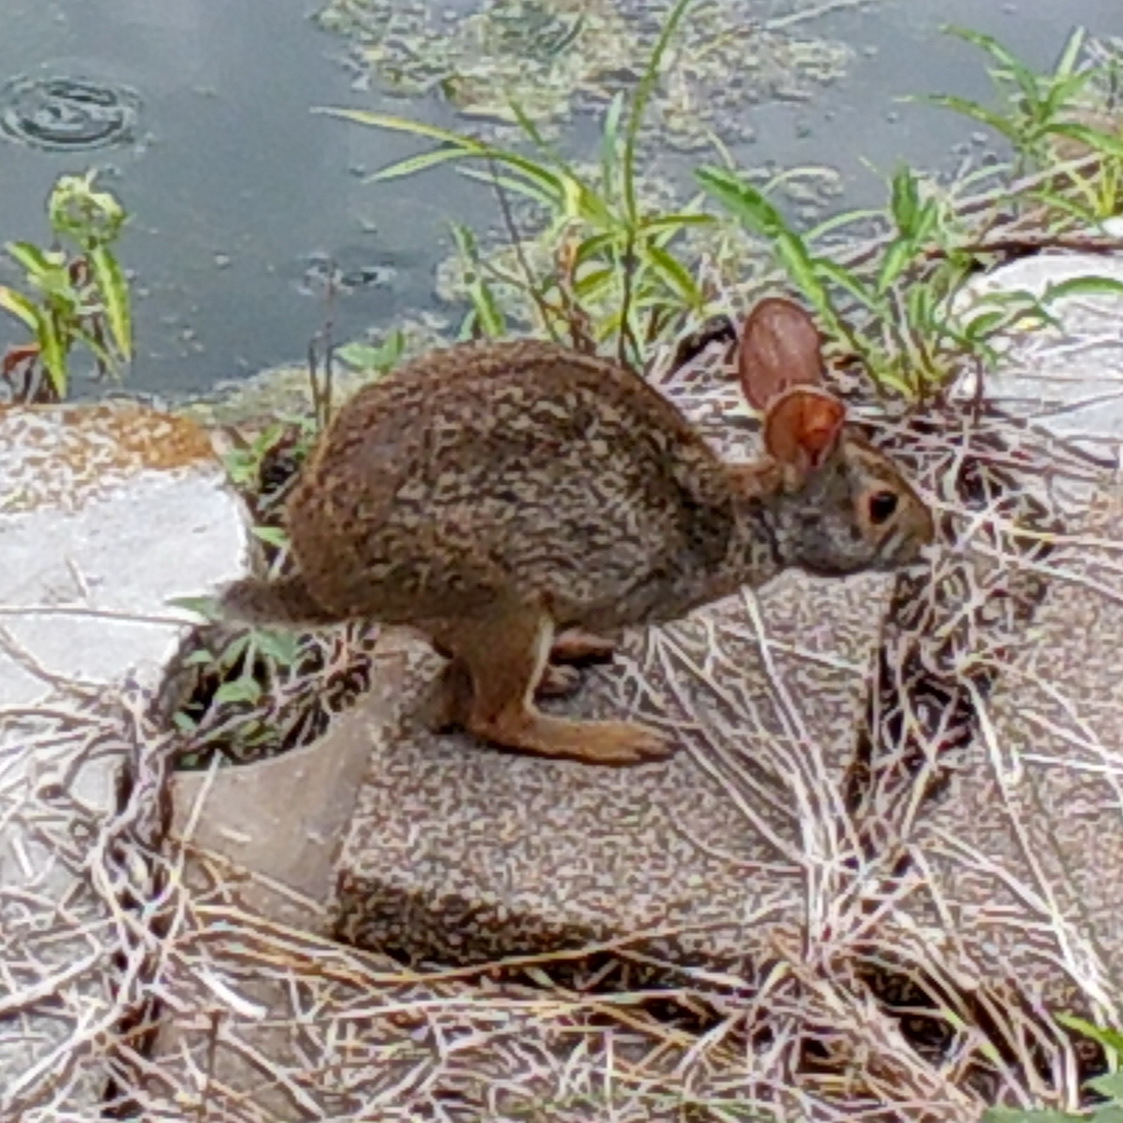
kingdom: Animalia
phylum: Chordata
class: Mammalia
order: Lagomorpha
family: Leporidae
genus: Sylvilagus
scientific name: Sylvilagus aquaticus
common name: Swamp rabbit
